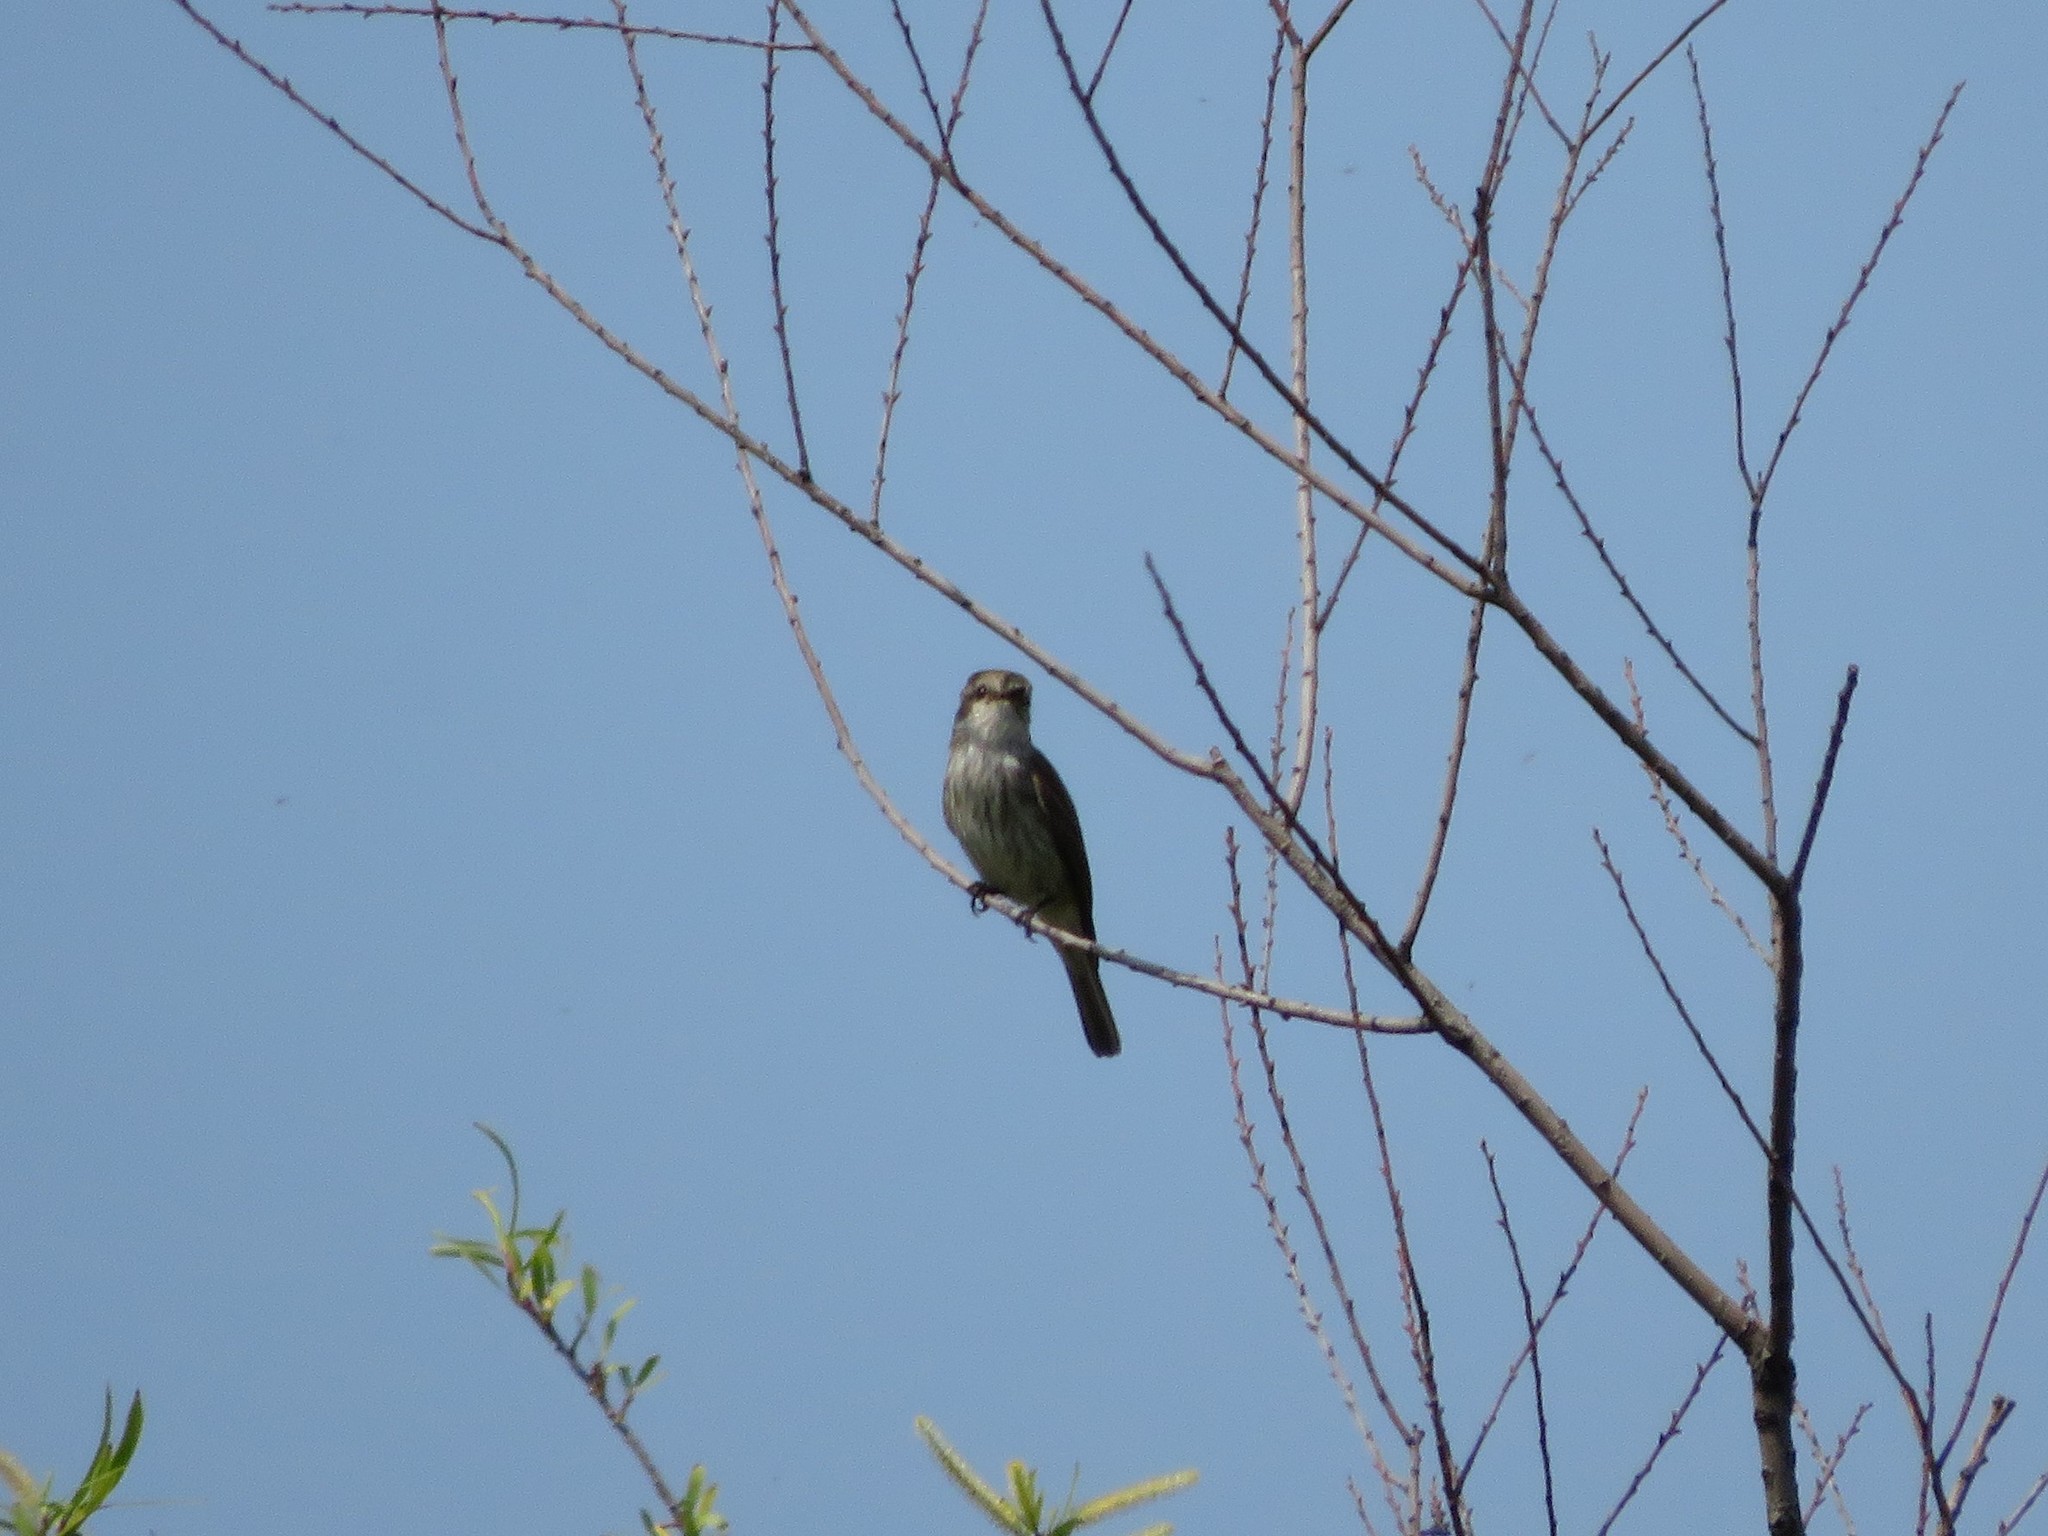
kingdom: Animalia
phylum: Chordata
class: Aves
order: Passeriformes
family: Tyrannidae
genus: Pyrocephalus
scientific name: Pyrocephalus rubinus
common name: Vermilion flycatcher
